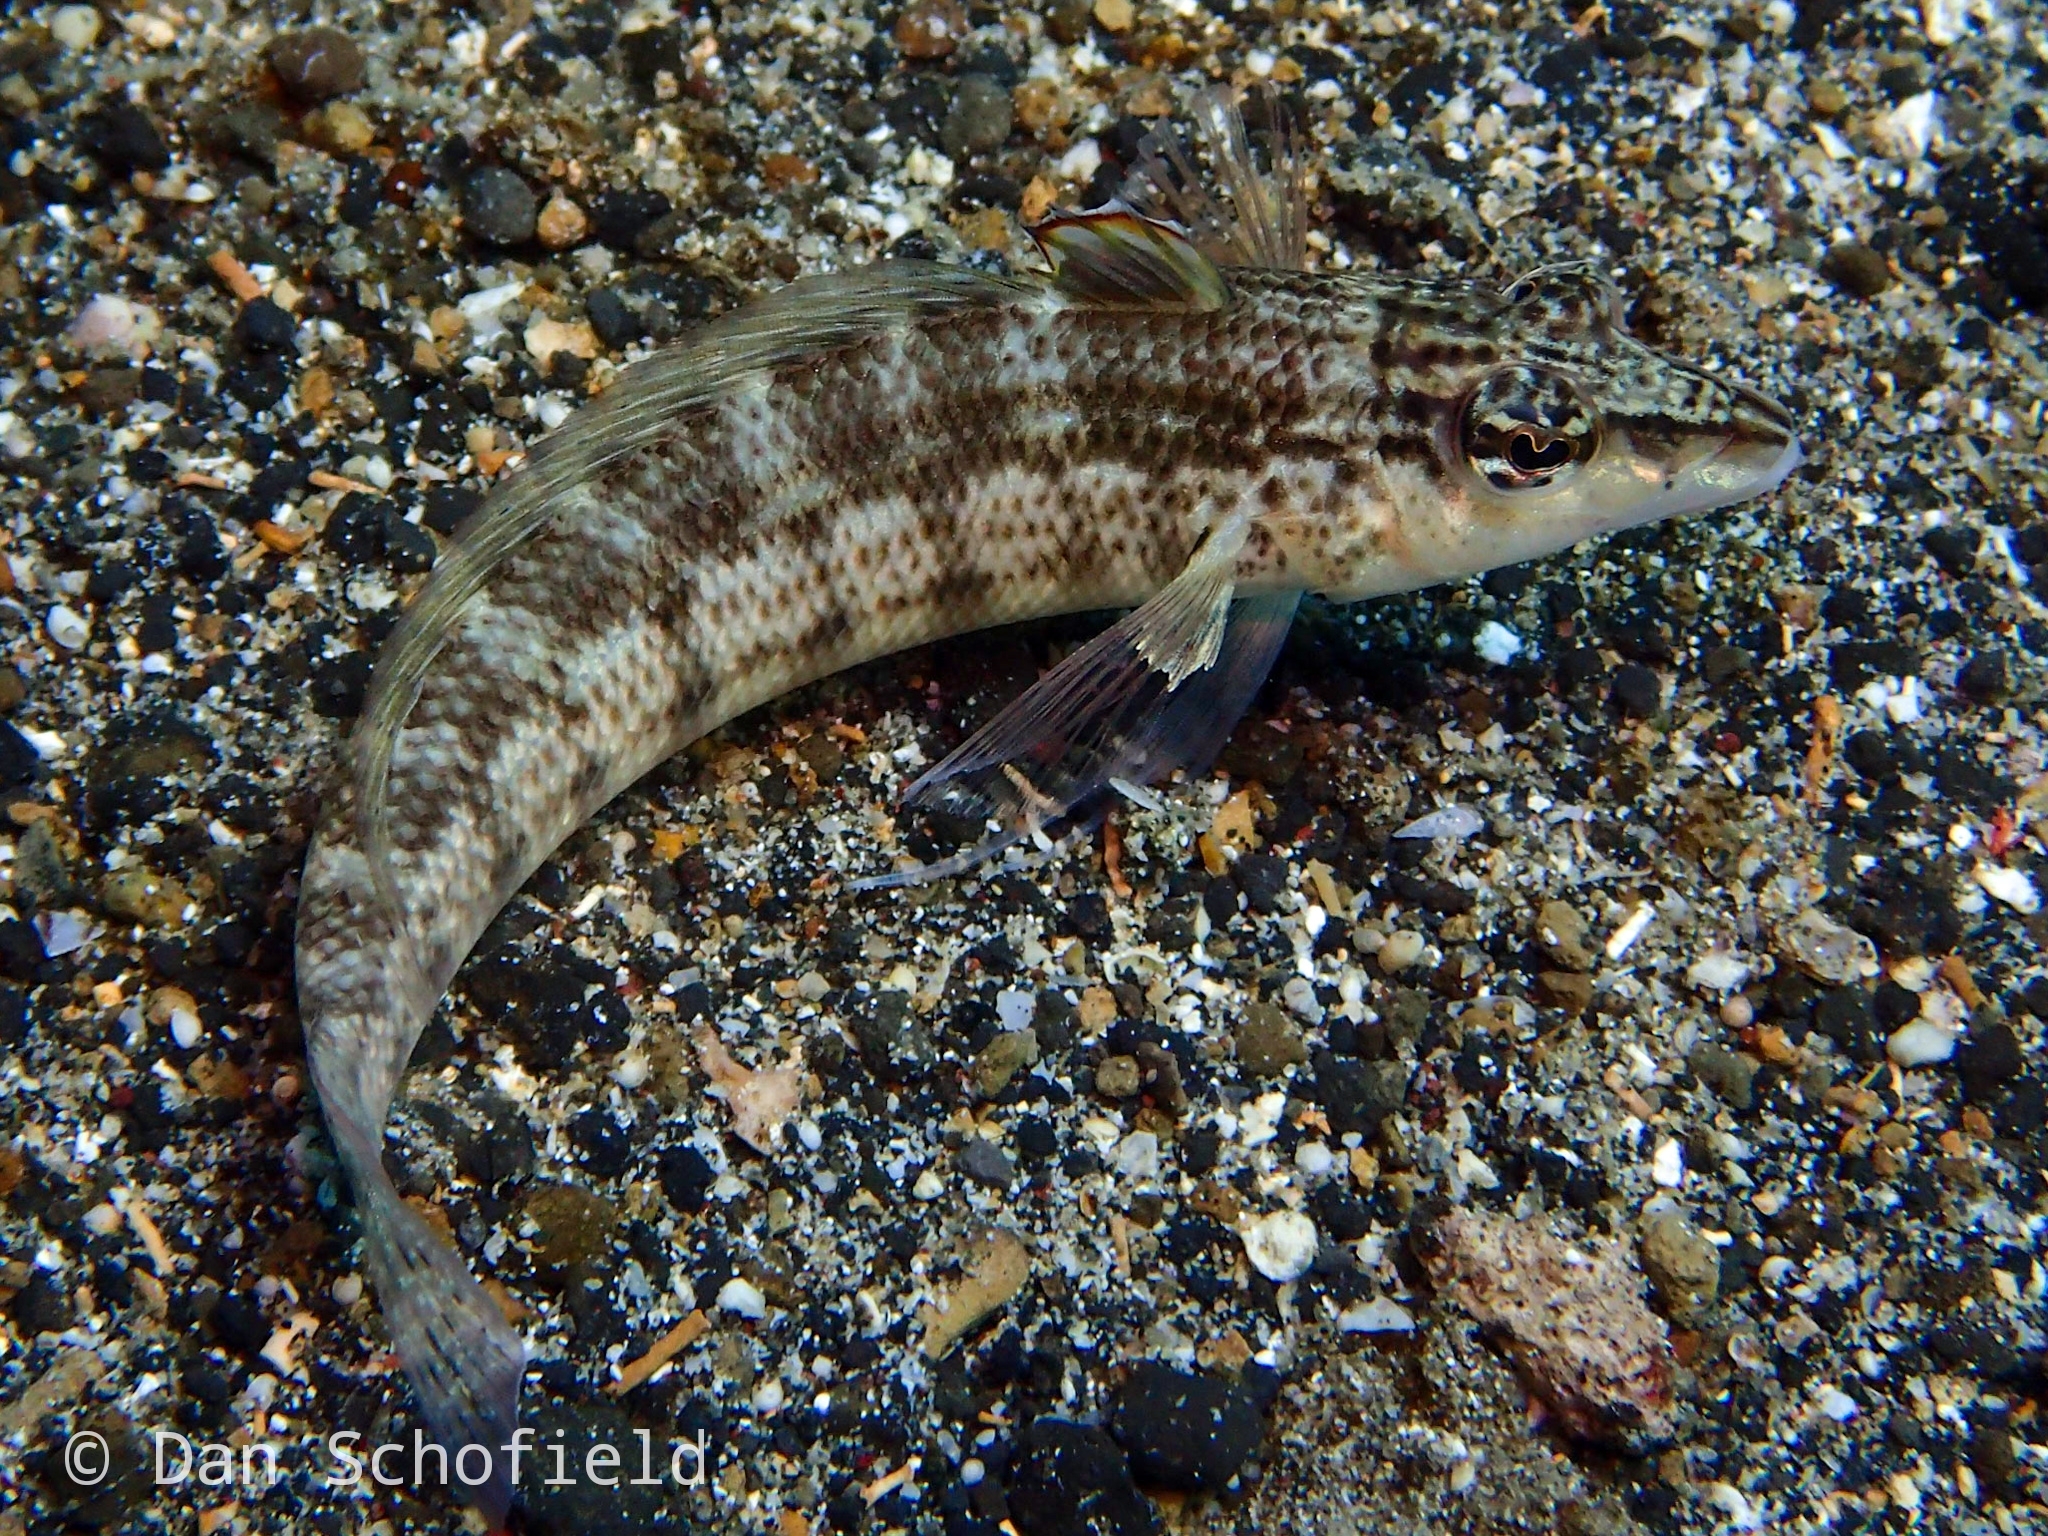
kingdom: Animalia
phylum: Chordata
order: Perciformes
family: Pinguipedidae
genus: Parapercis
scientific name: Parapercis lineopunctata
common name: Nosestripe sandperch
